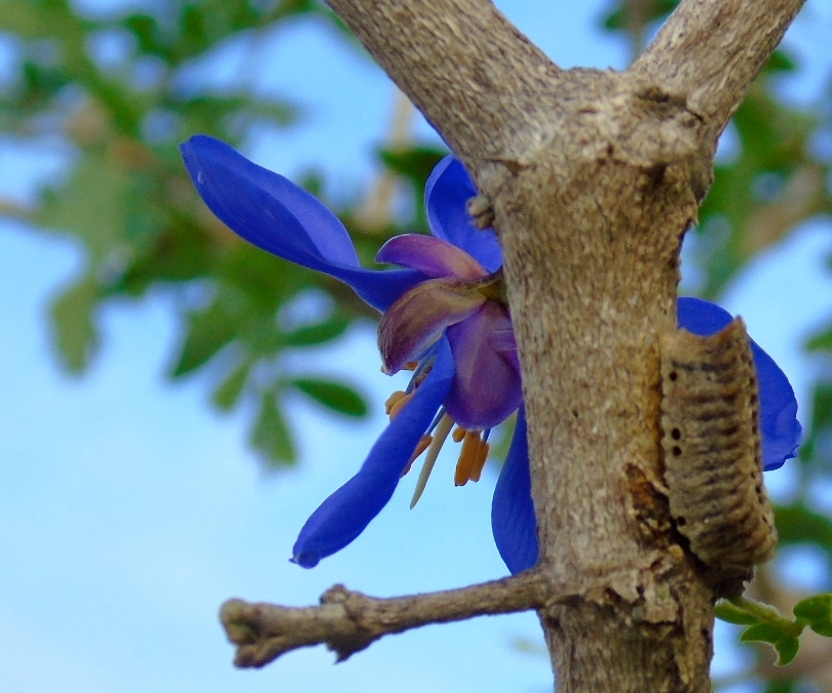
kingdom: Plantae
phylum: Tracheophyta
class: Magnoliopsida
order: Zygophyllales
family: Zygophyllaceae
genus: Guaiacum
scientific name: Guaiacum coulteri
